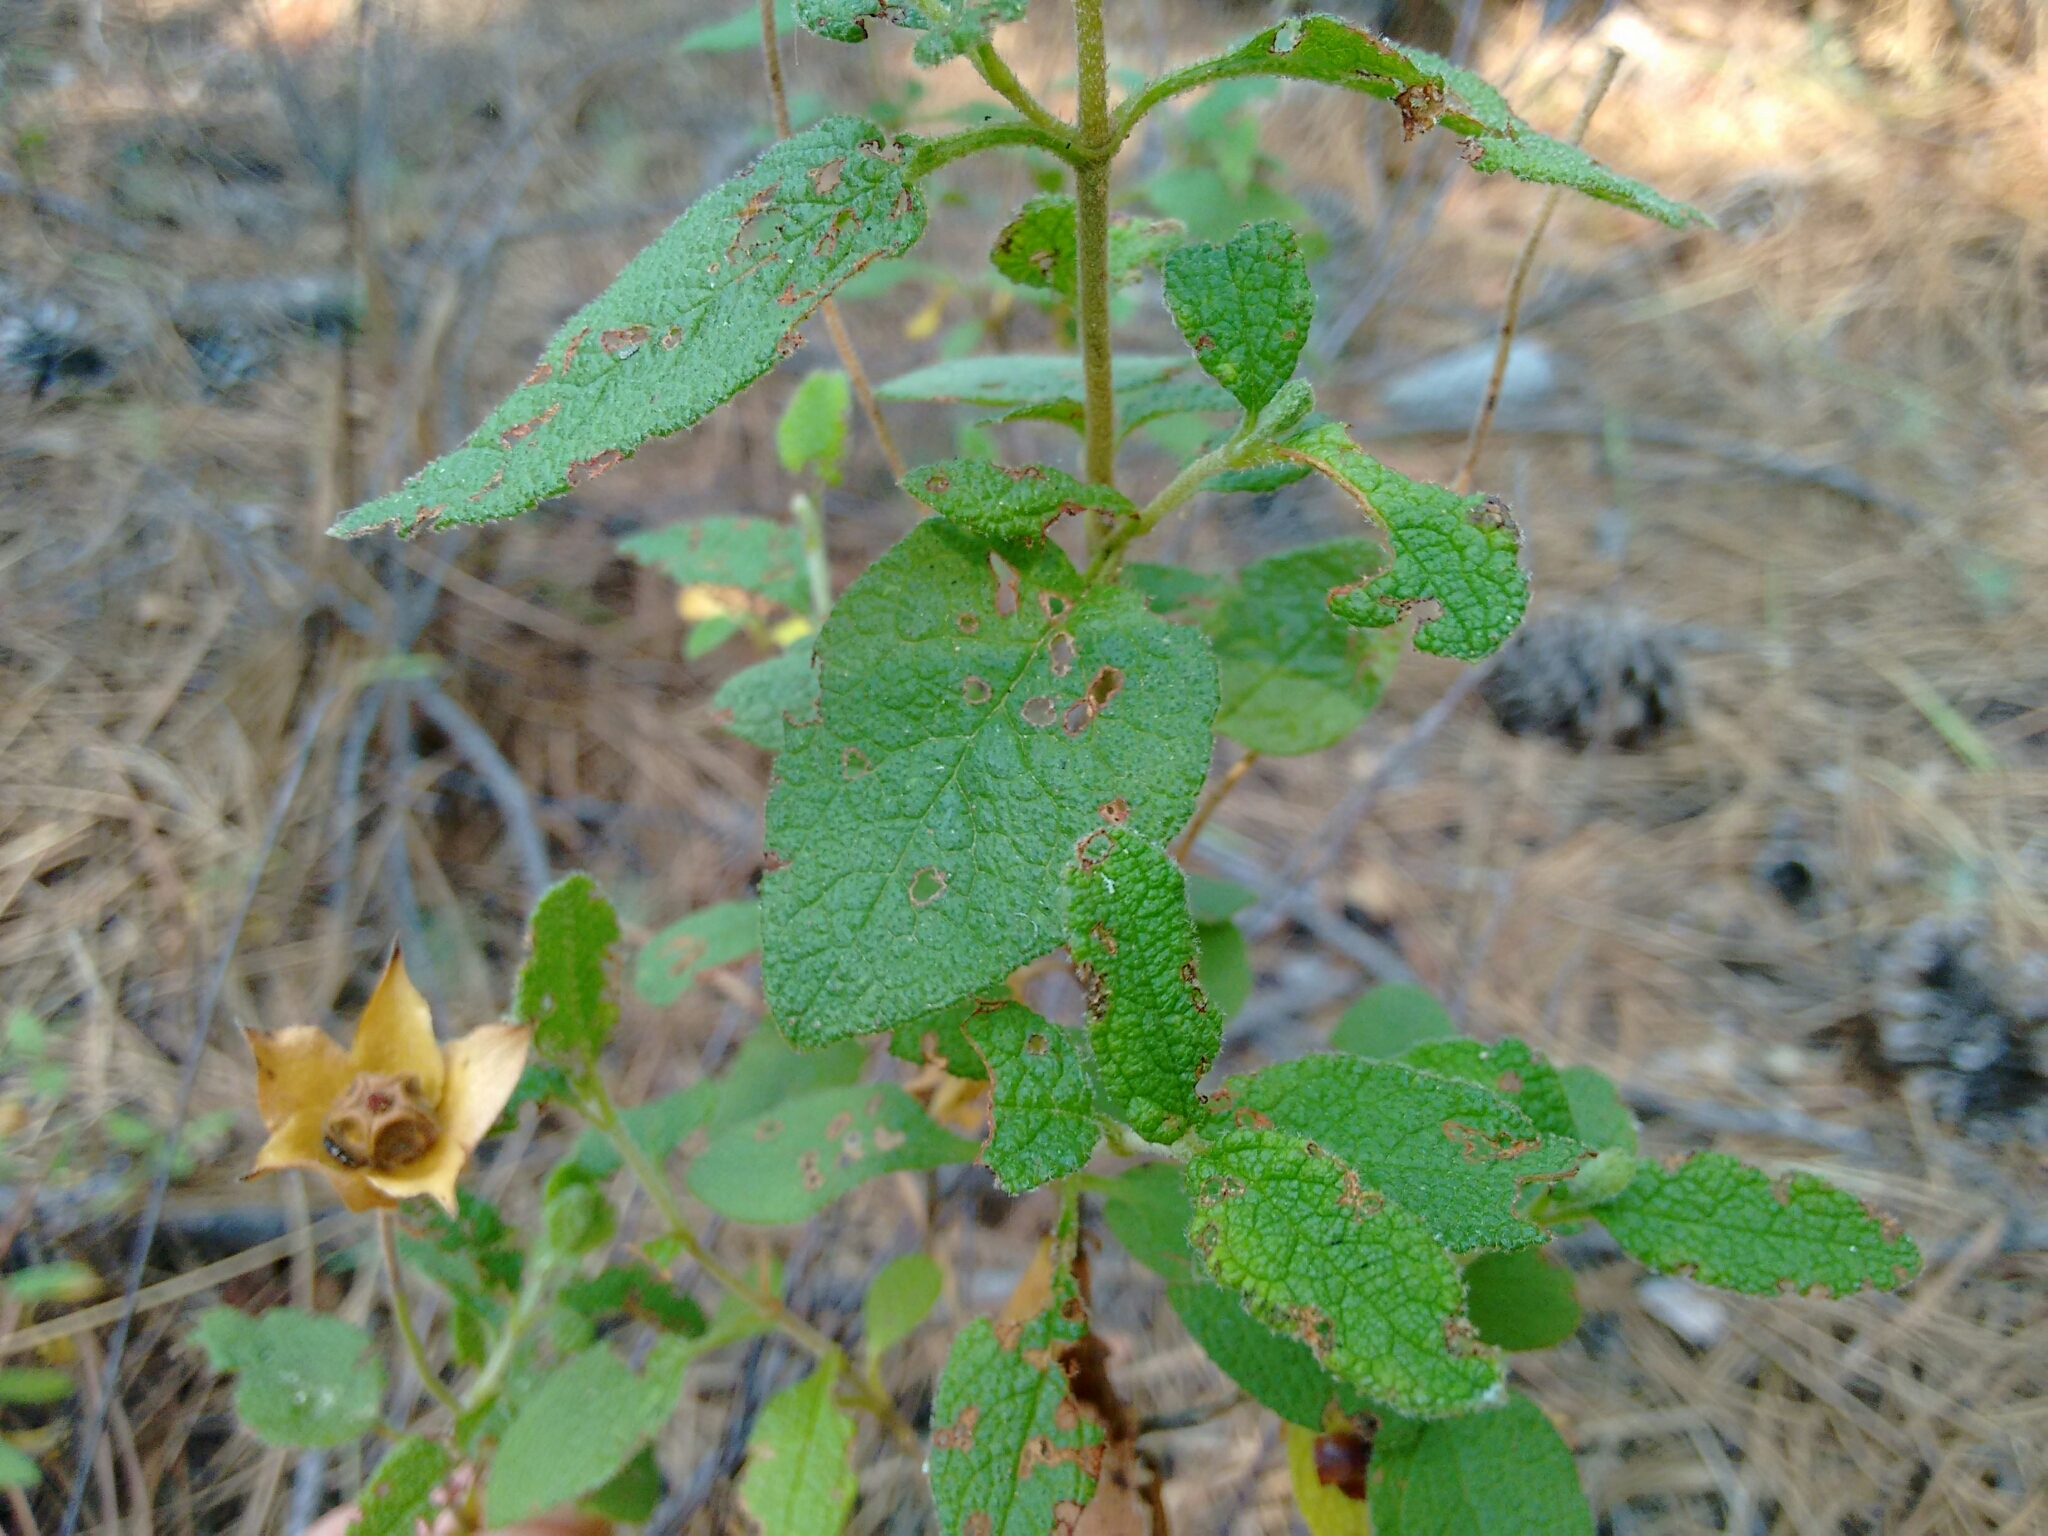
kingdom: Plantae
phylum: Tracheophyta
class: Magnoliopsida
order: Malvales
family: Cistaceae
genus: Cistus
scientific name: Cistus salviifolius
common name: Salvia cistus
